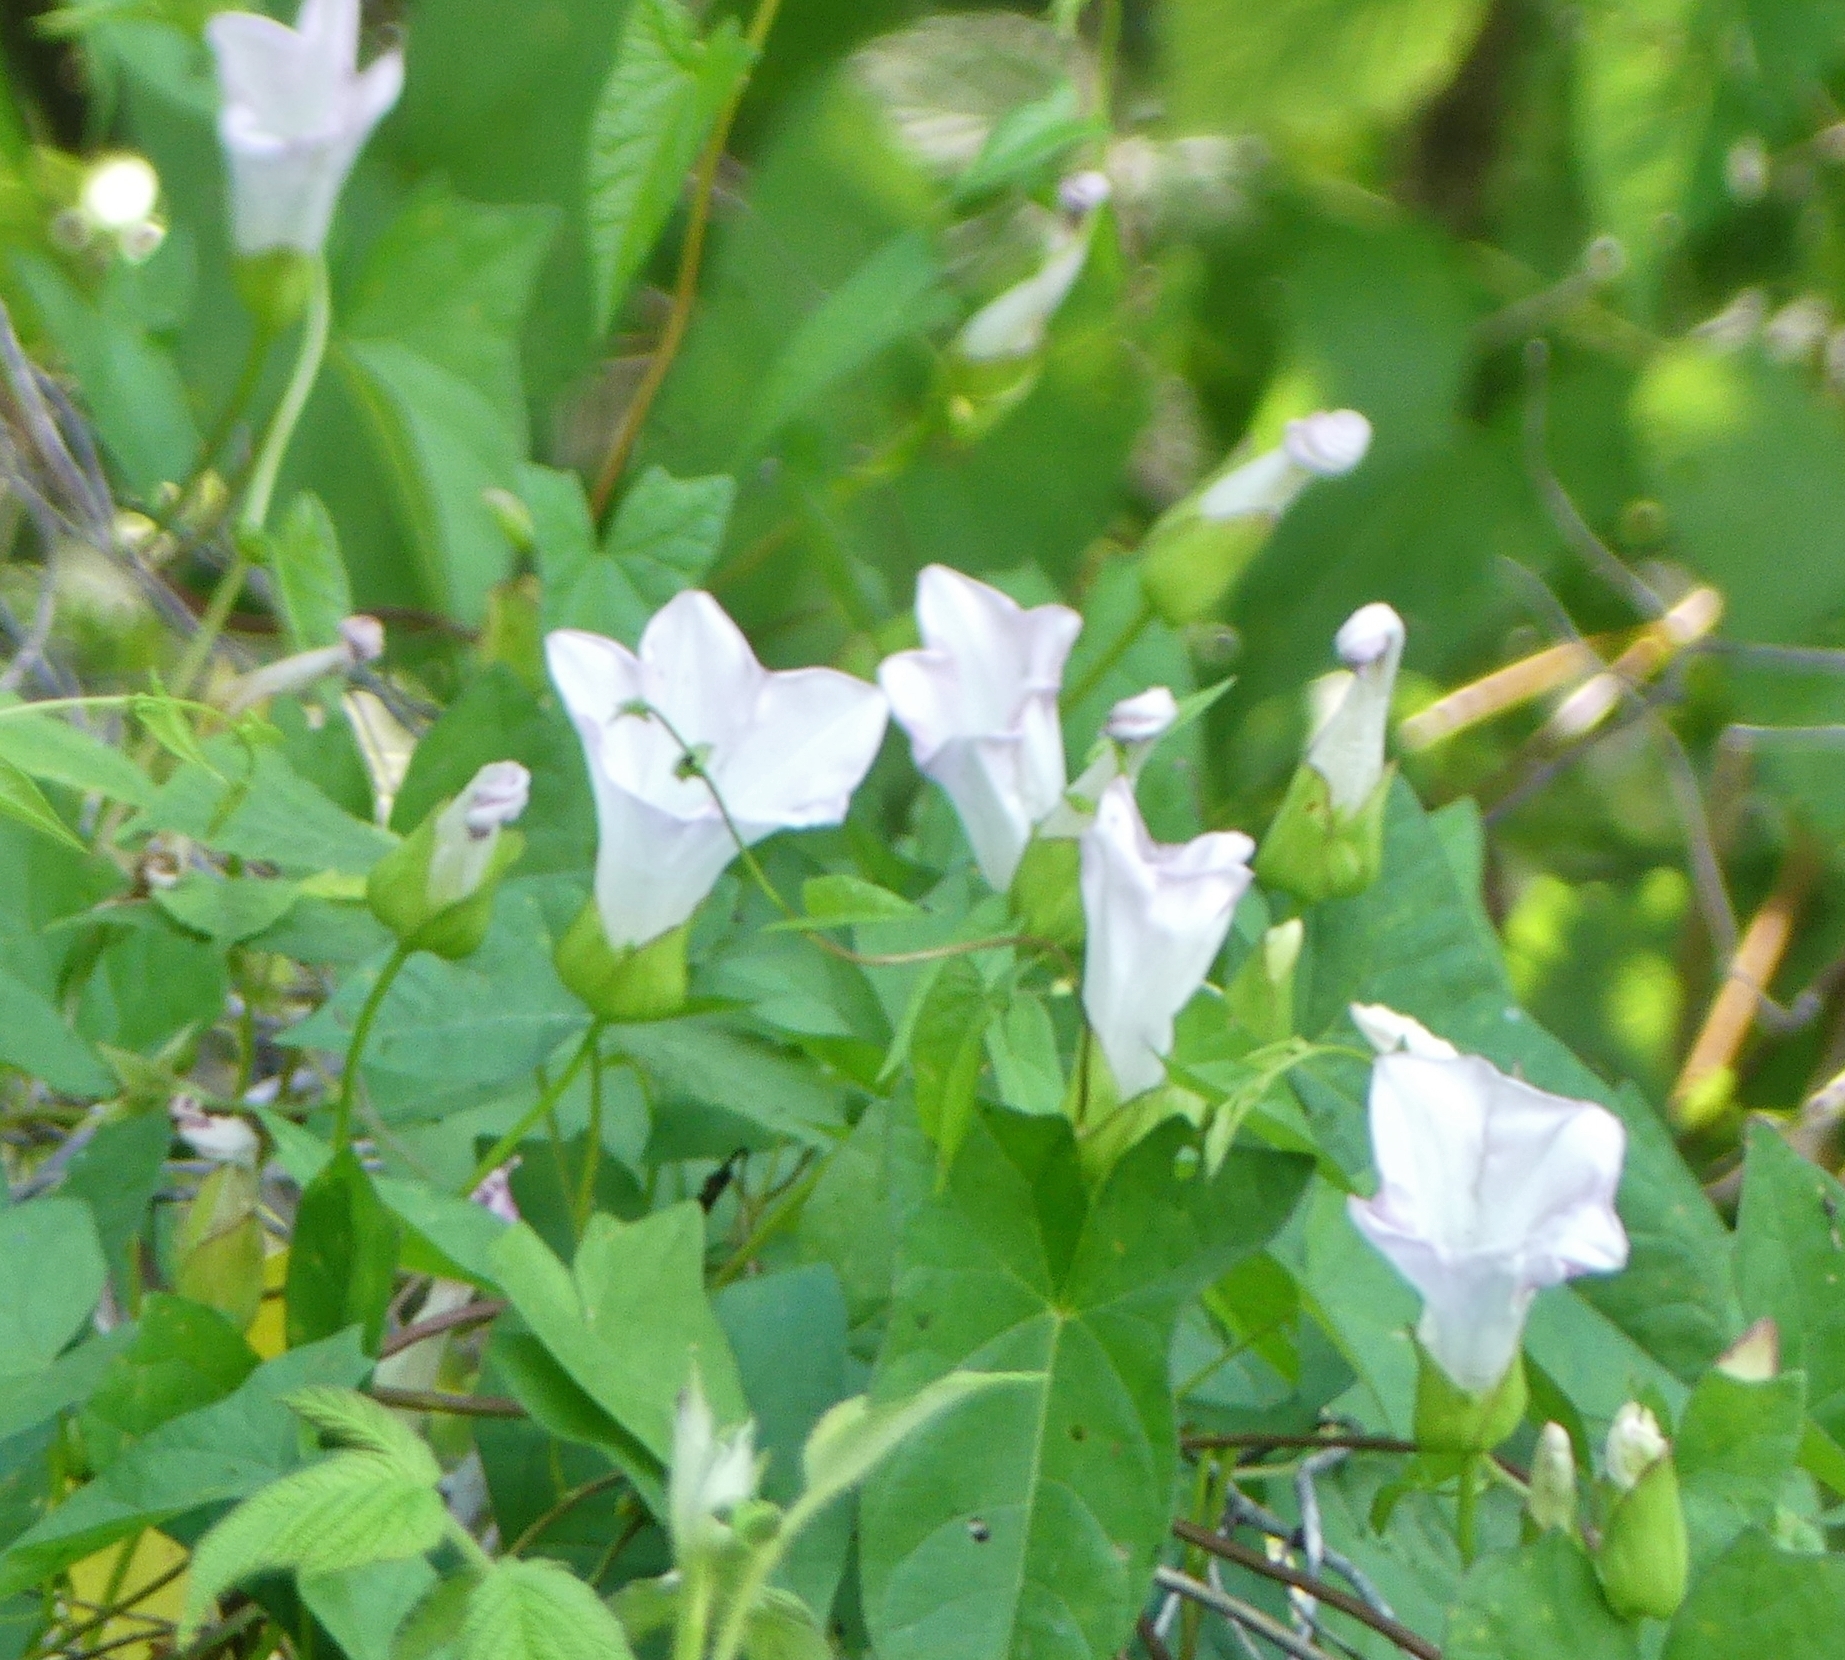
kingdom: Plantae
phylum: Tracheophyta
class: Magnoliopsida
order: Solanales
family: Convolvulaceae
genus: Calystegia
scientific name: Calystegia sepium
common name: Hedge bindweed
